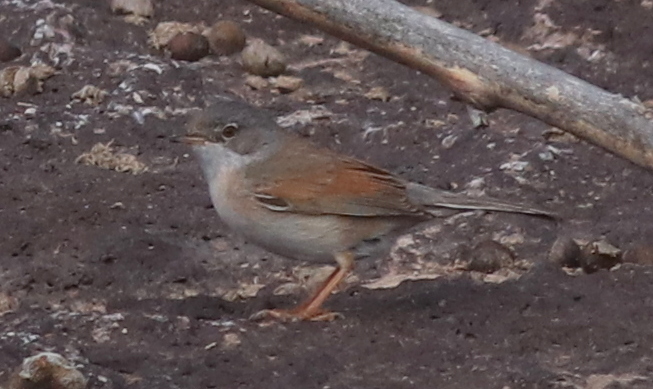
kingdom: Animalia
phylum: Chordata
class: Aves
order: Passeriformes
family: Sylviidae
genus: Sylvia
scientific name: Sylvia conspicillata
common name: Spectacled warbler
